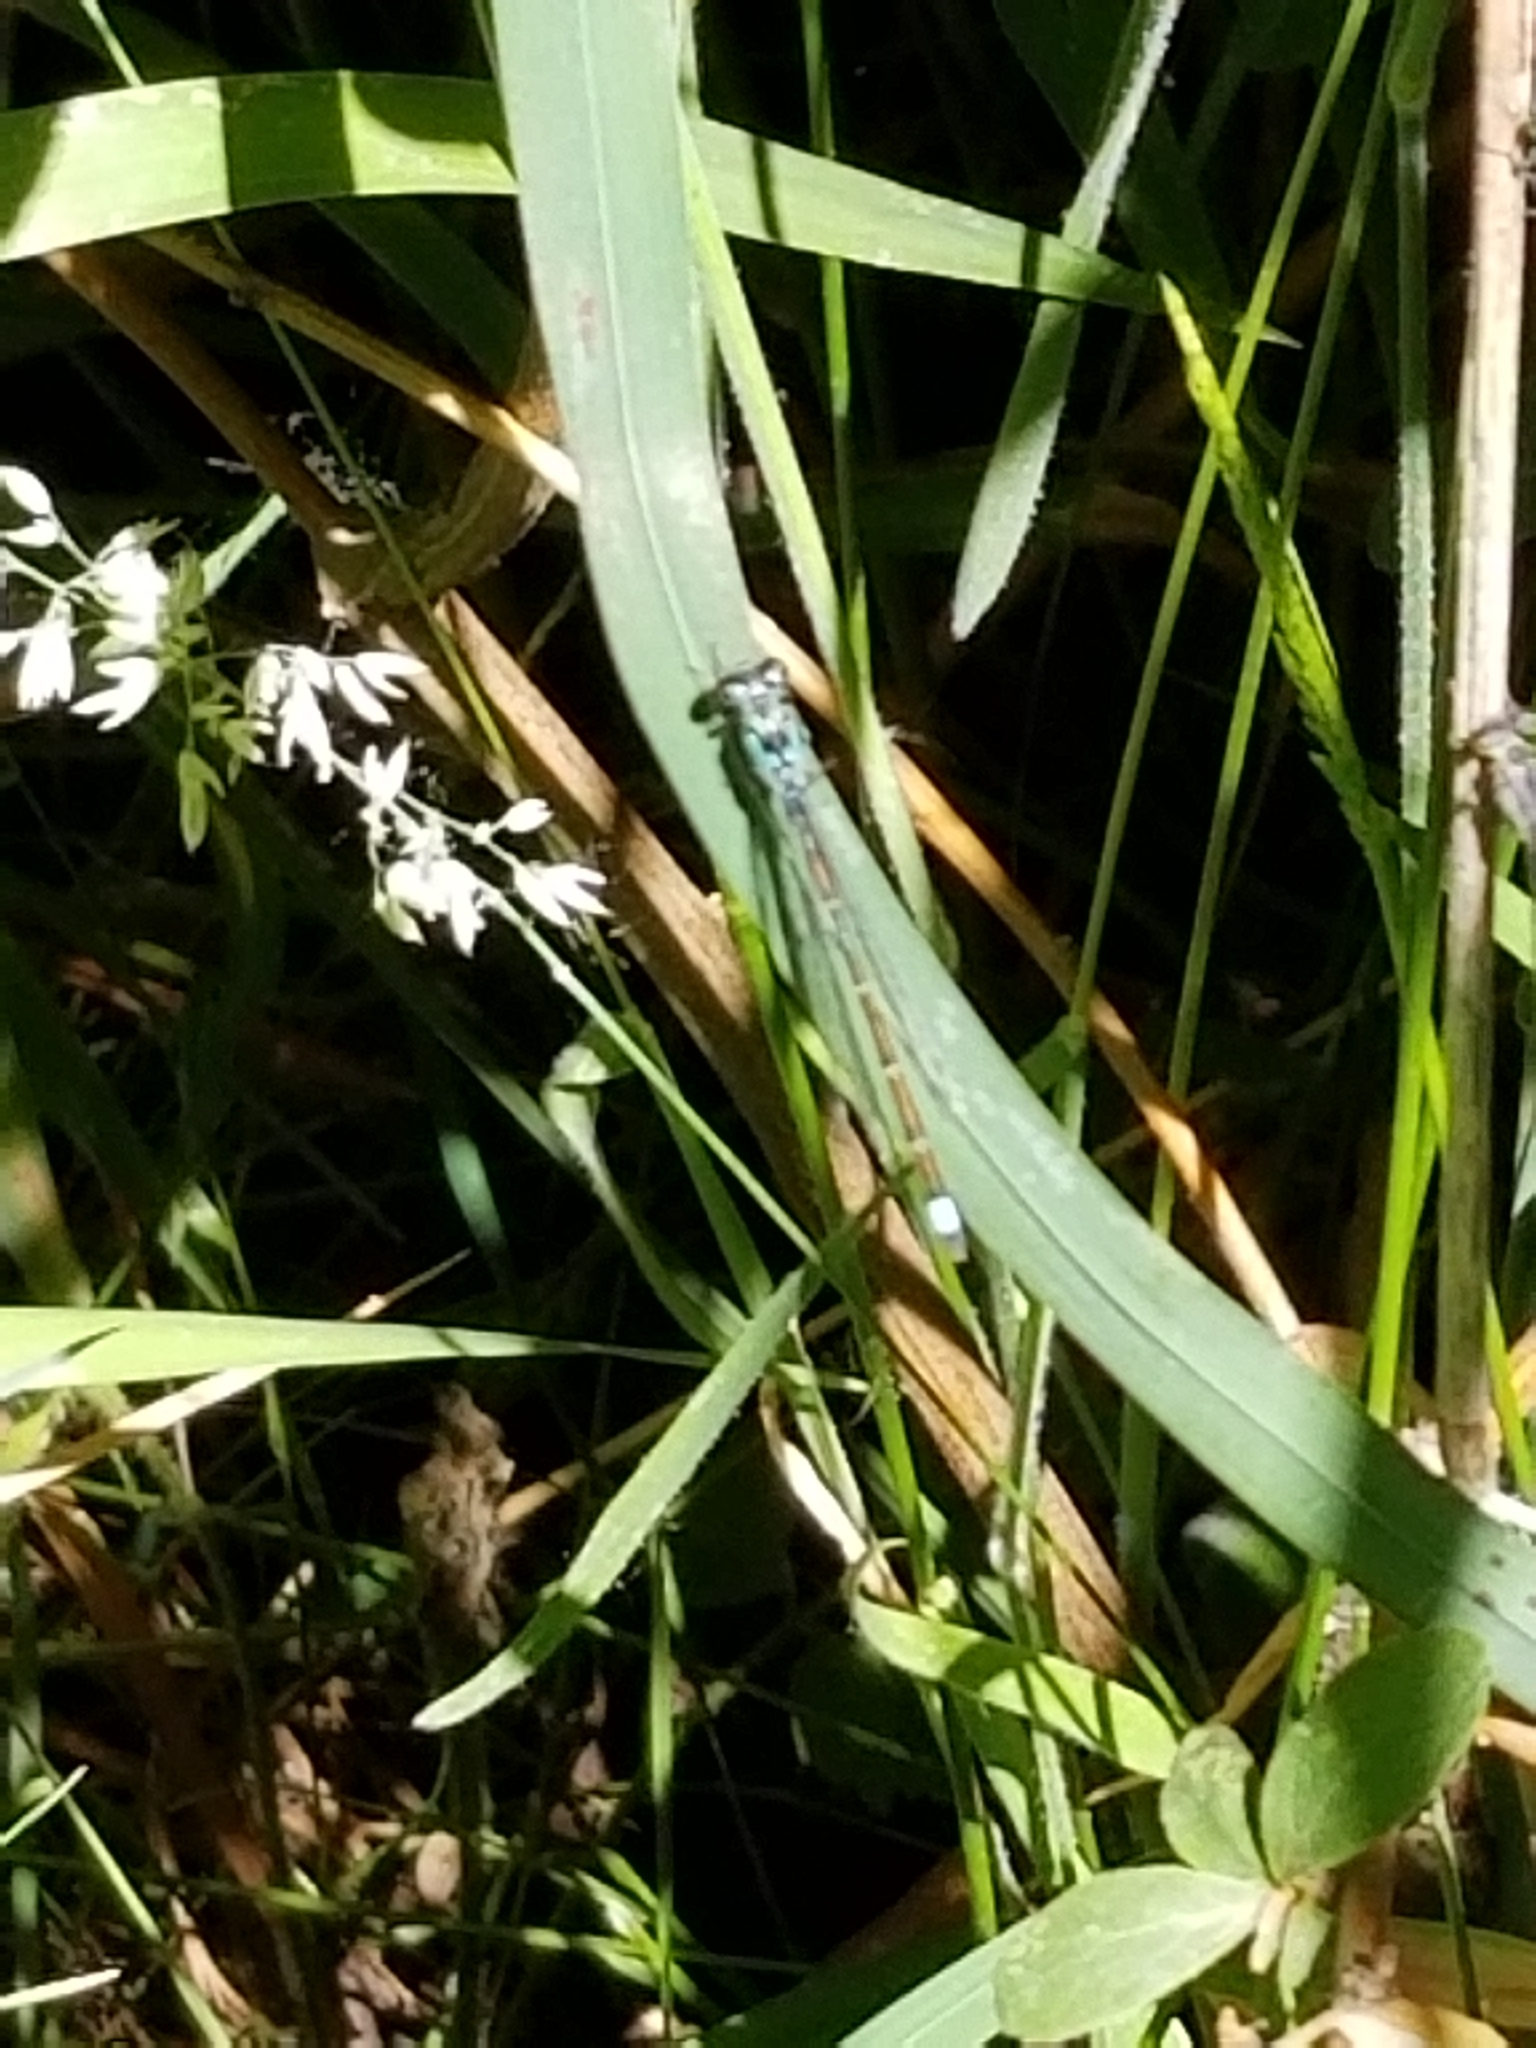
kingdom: Animalia
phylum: Arthropoda
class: Insecta
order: Odonata
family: Coenagrionidae
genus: Ischnura
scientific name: Ischnura cervula
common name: Pacific forktail
